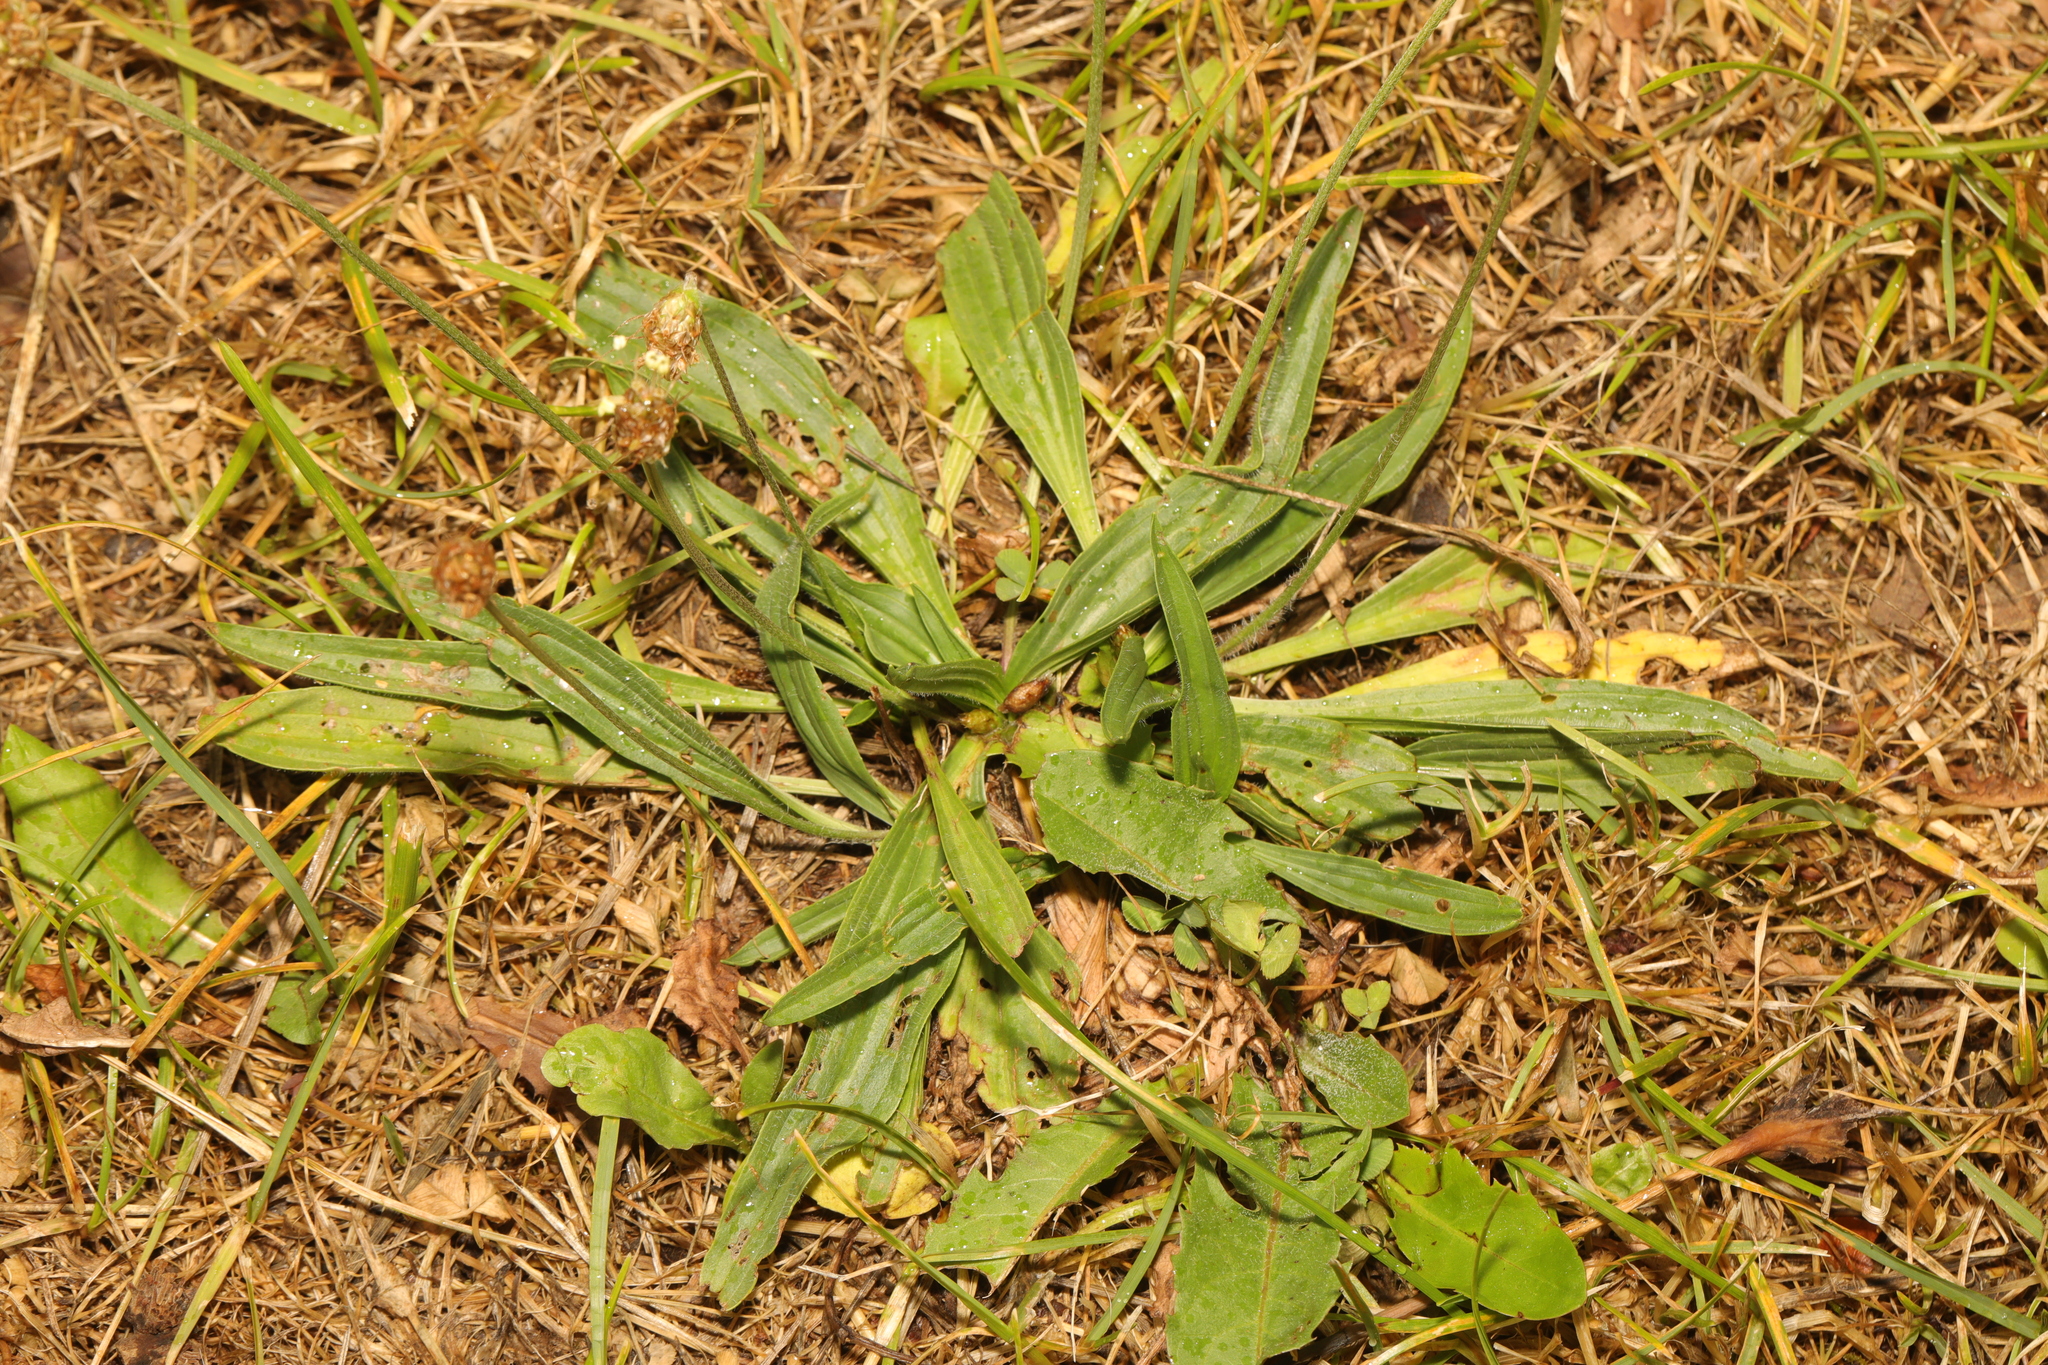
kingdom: Plantae
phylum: Tracheophyta
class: Magnoliopsida
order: Lamiales
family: Plantaginaceae
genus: Plantago
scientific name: Plantago lanceolata
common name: Ribwort plantain
